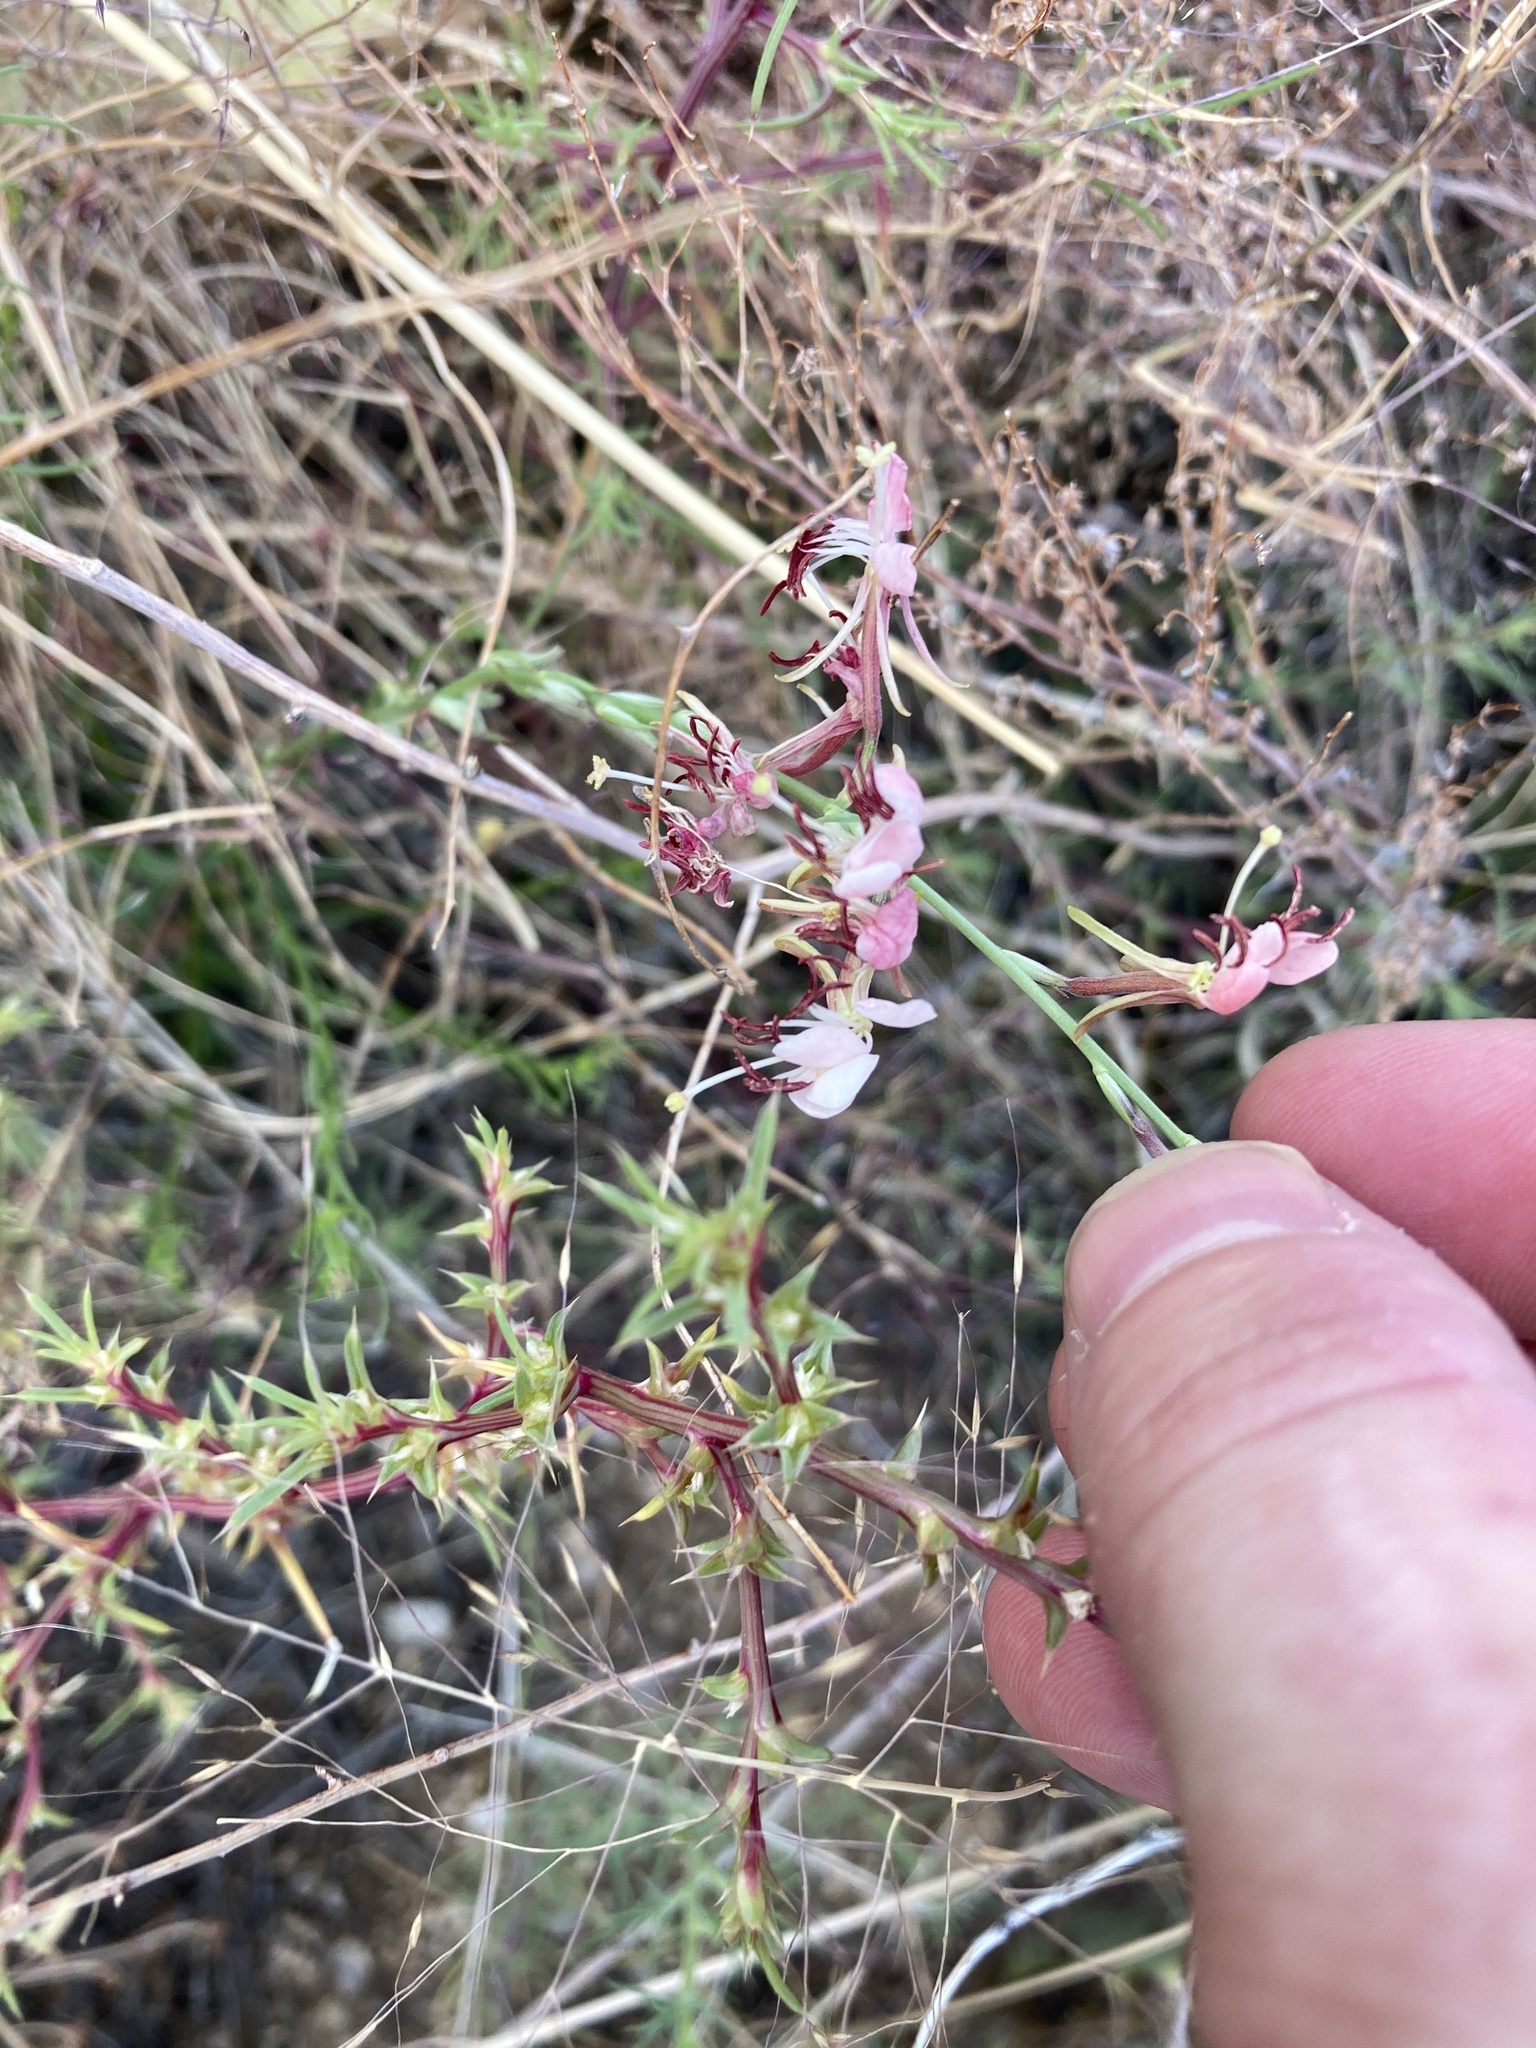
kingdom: Plantae
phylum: Tracheophyta
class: Magnoliopsida
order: Myrtales
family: Onagraceae
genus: Oenothera
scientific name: Oenothera suffrutescens
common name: Scarlet beeblossom
